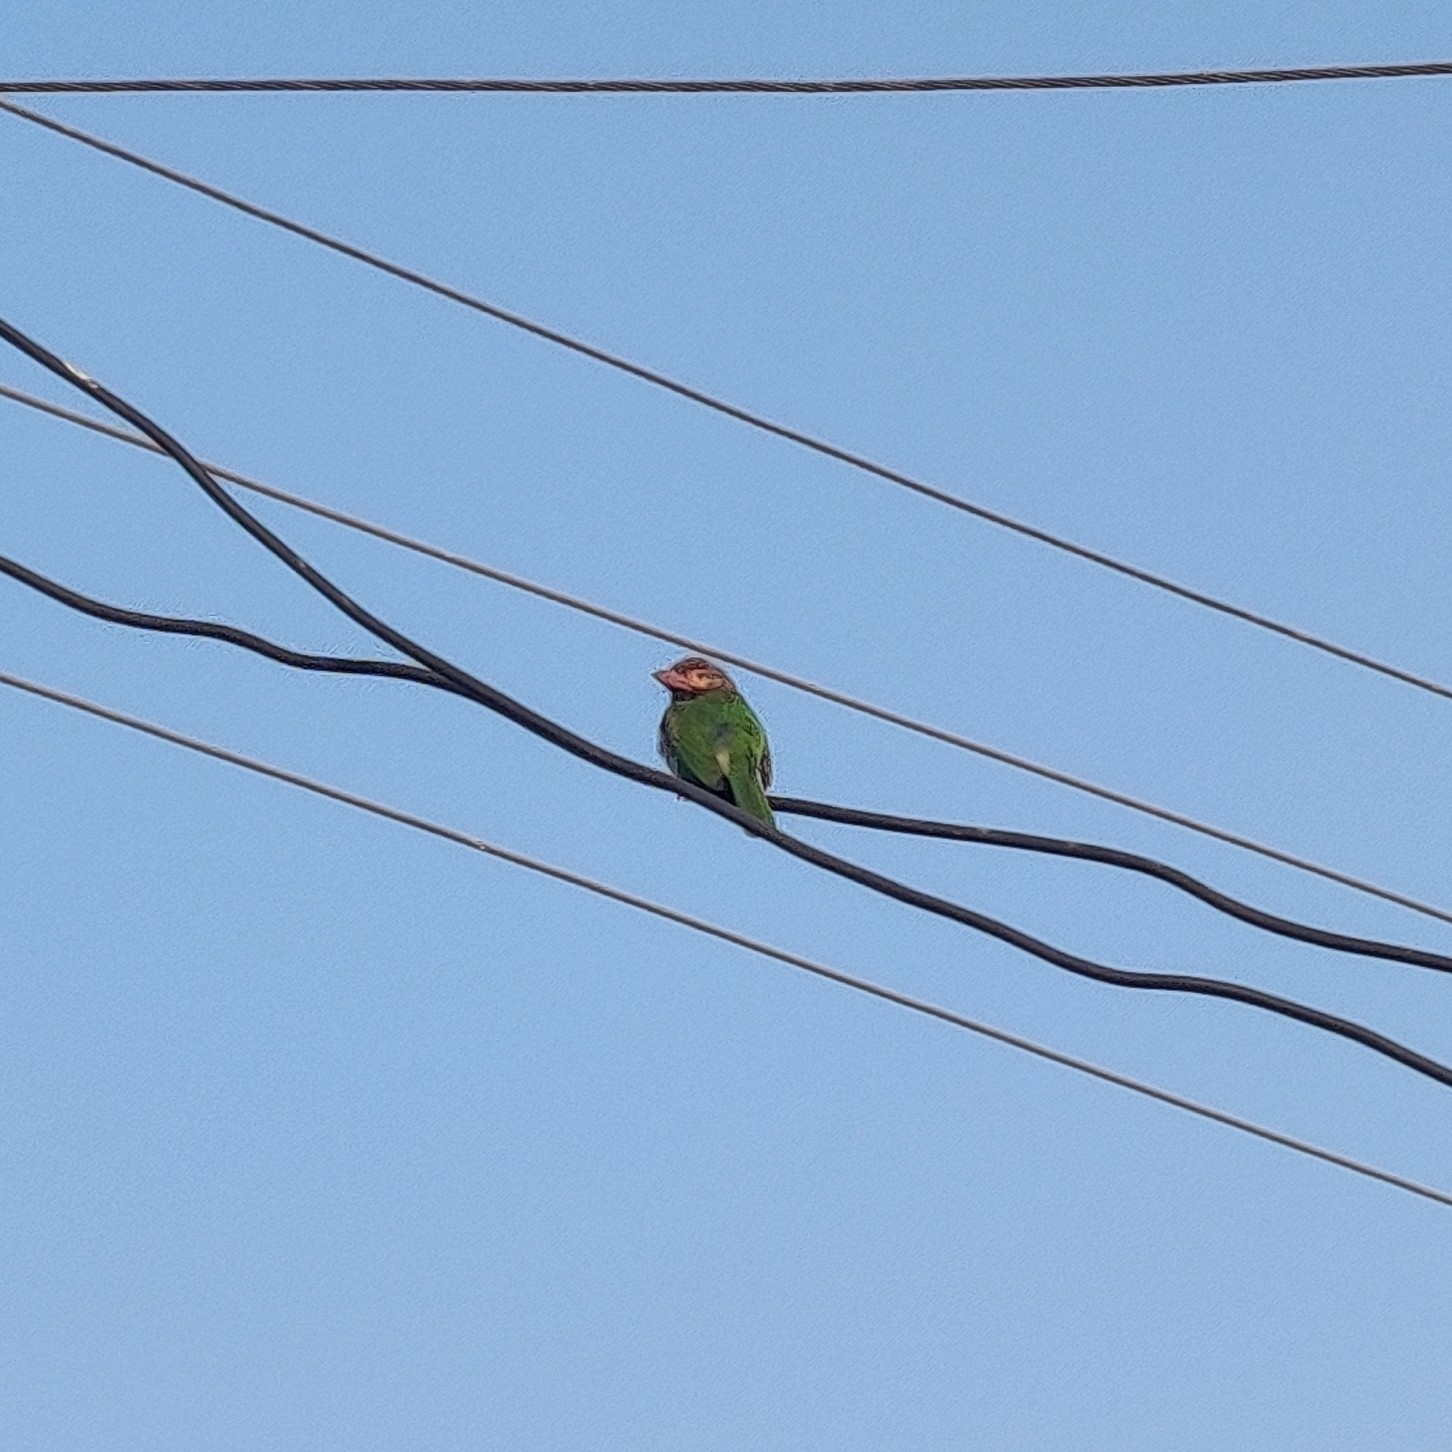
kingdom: Animalia
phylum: Chordata
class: Aves
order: Piciformes
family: Megalaimidae
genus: Psilopogon
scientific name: Psilopogon zeylanicus
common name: Brown-headed barbet
